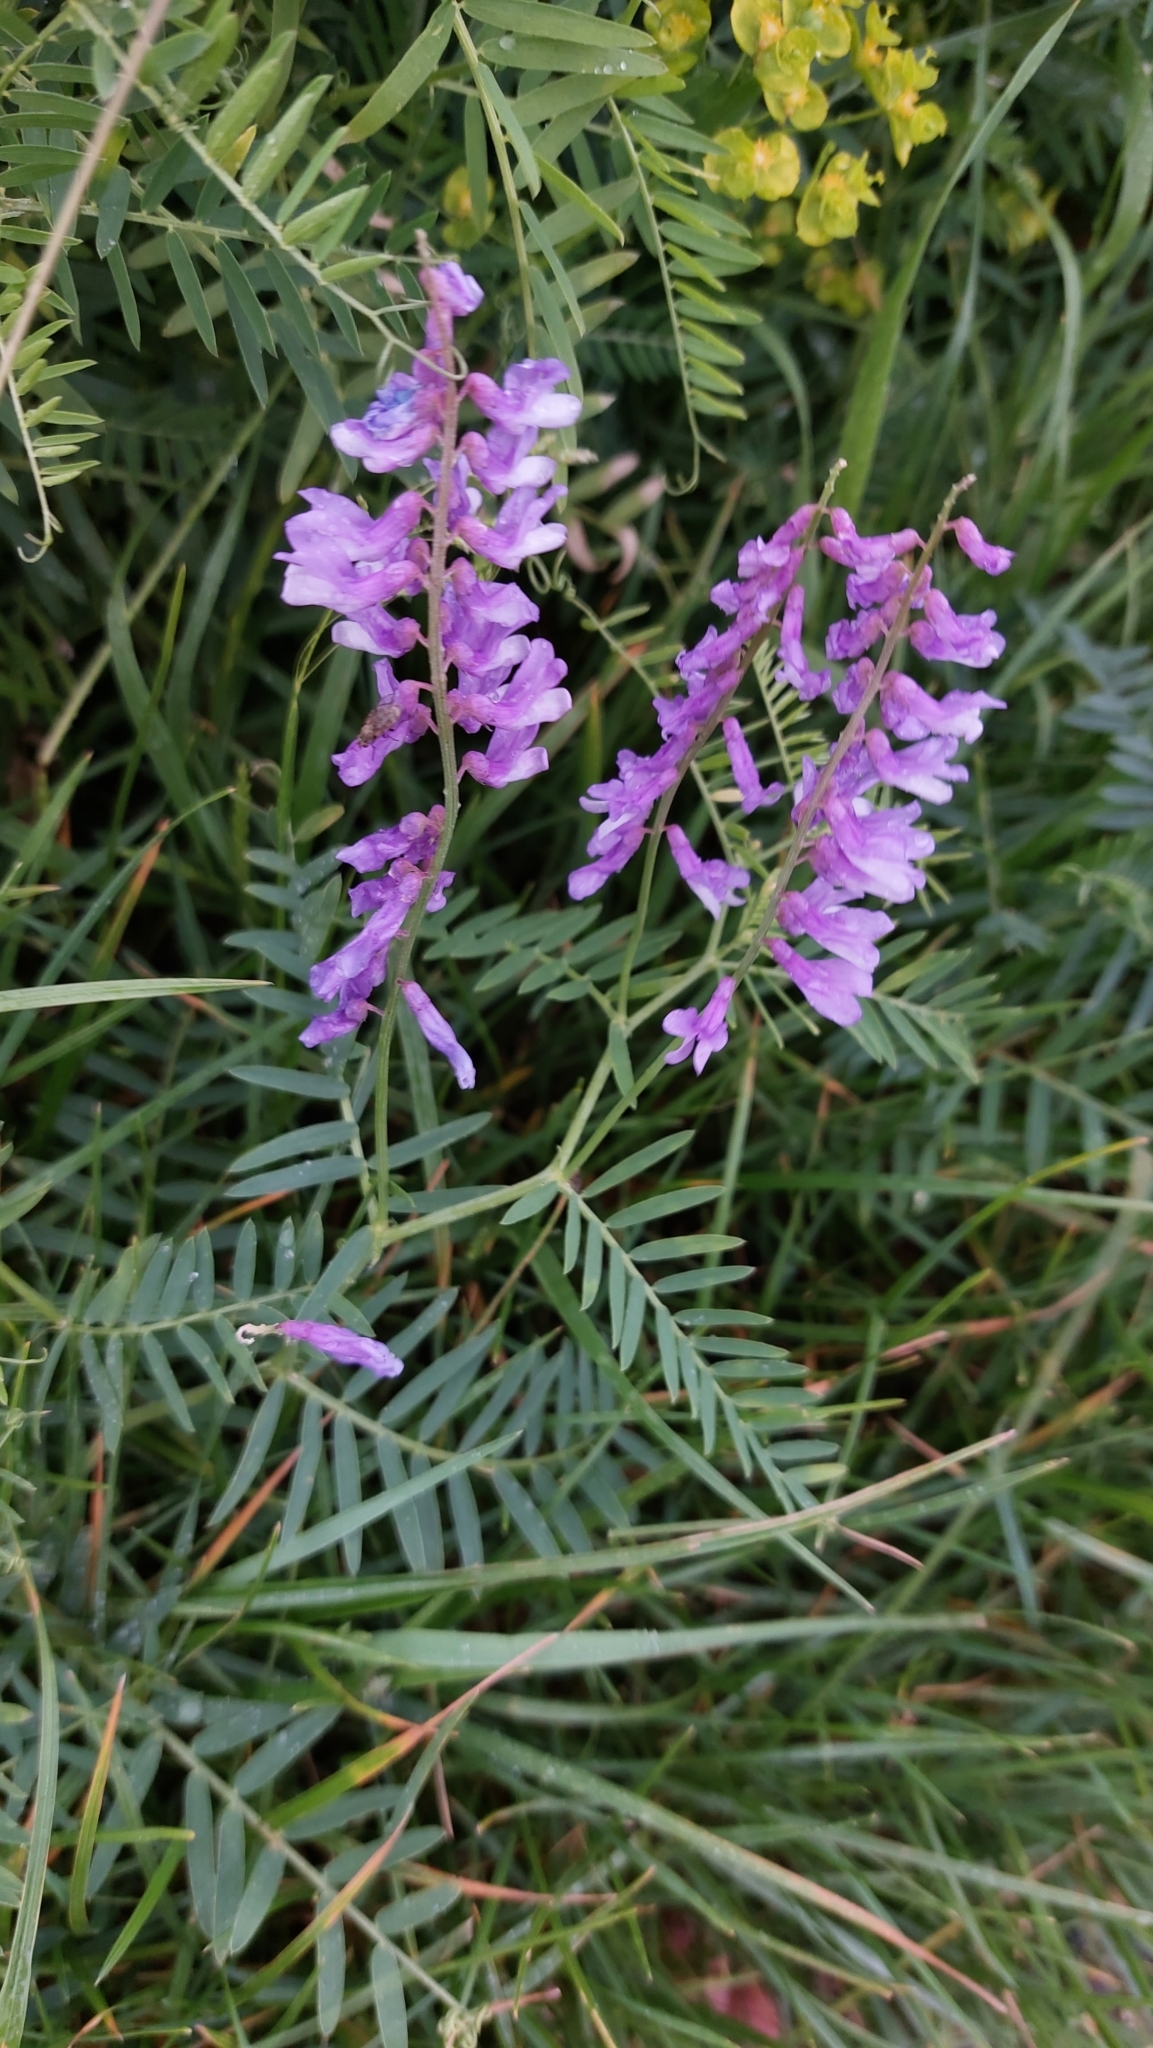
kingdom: Plantae
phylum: Tracheophyta
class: Magnoliopsida
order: Fabales
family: Fabaceae
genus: Vicia
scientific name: Vicia tenuifolia
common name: Fine-leaved vetch
